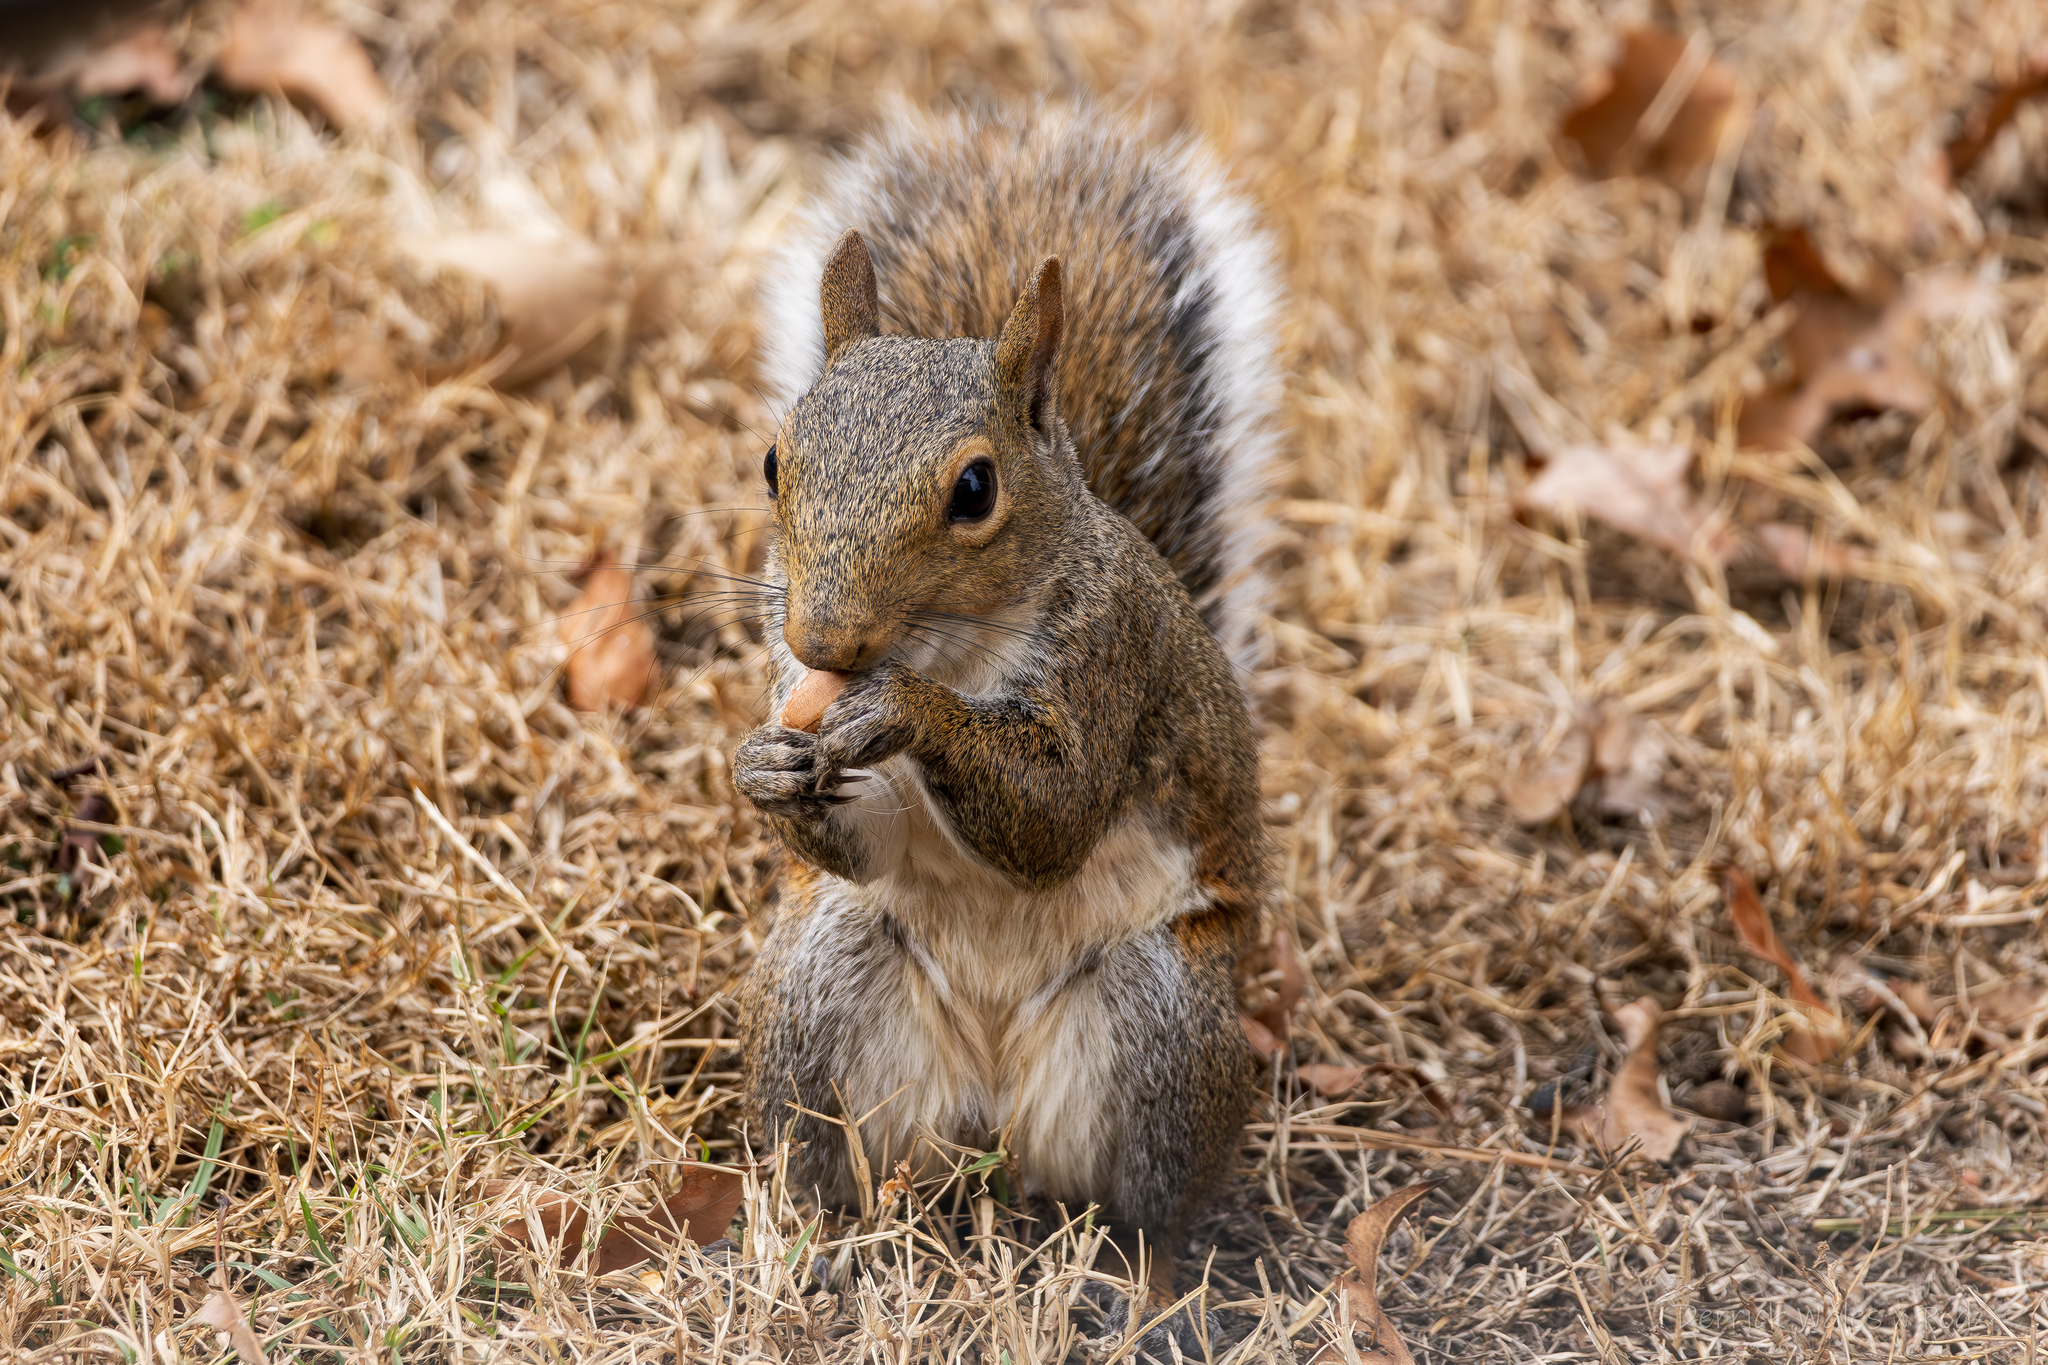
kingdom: Animalia
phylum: Chordata
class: Mammalia
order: Rodentia
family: Sciuridae
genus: Sciurus
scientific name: Sciurus carolinensis
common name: Eastern gray squirrel
